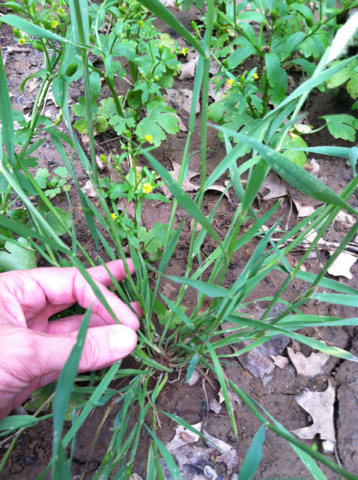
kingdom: Plantae
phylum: Tracheophyta
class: Liliopsida
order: Poales
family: Poaceae
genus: Polypogon
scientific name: Polypogon monspeliensis
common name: Annual rabbitsfoot grass
